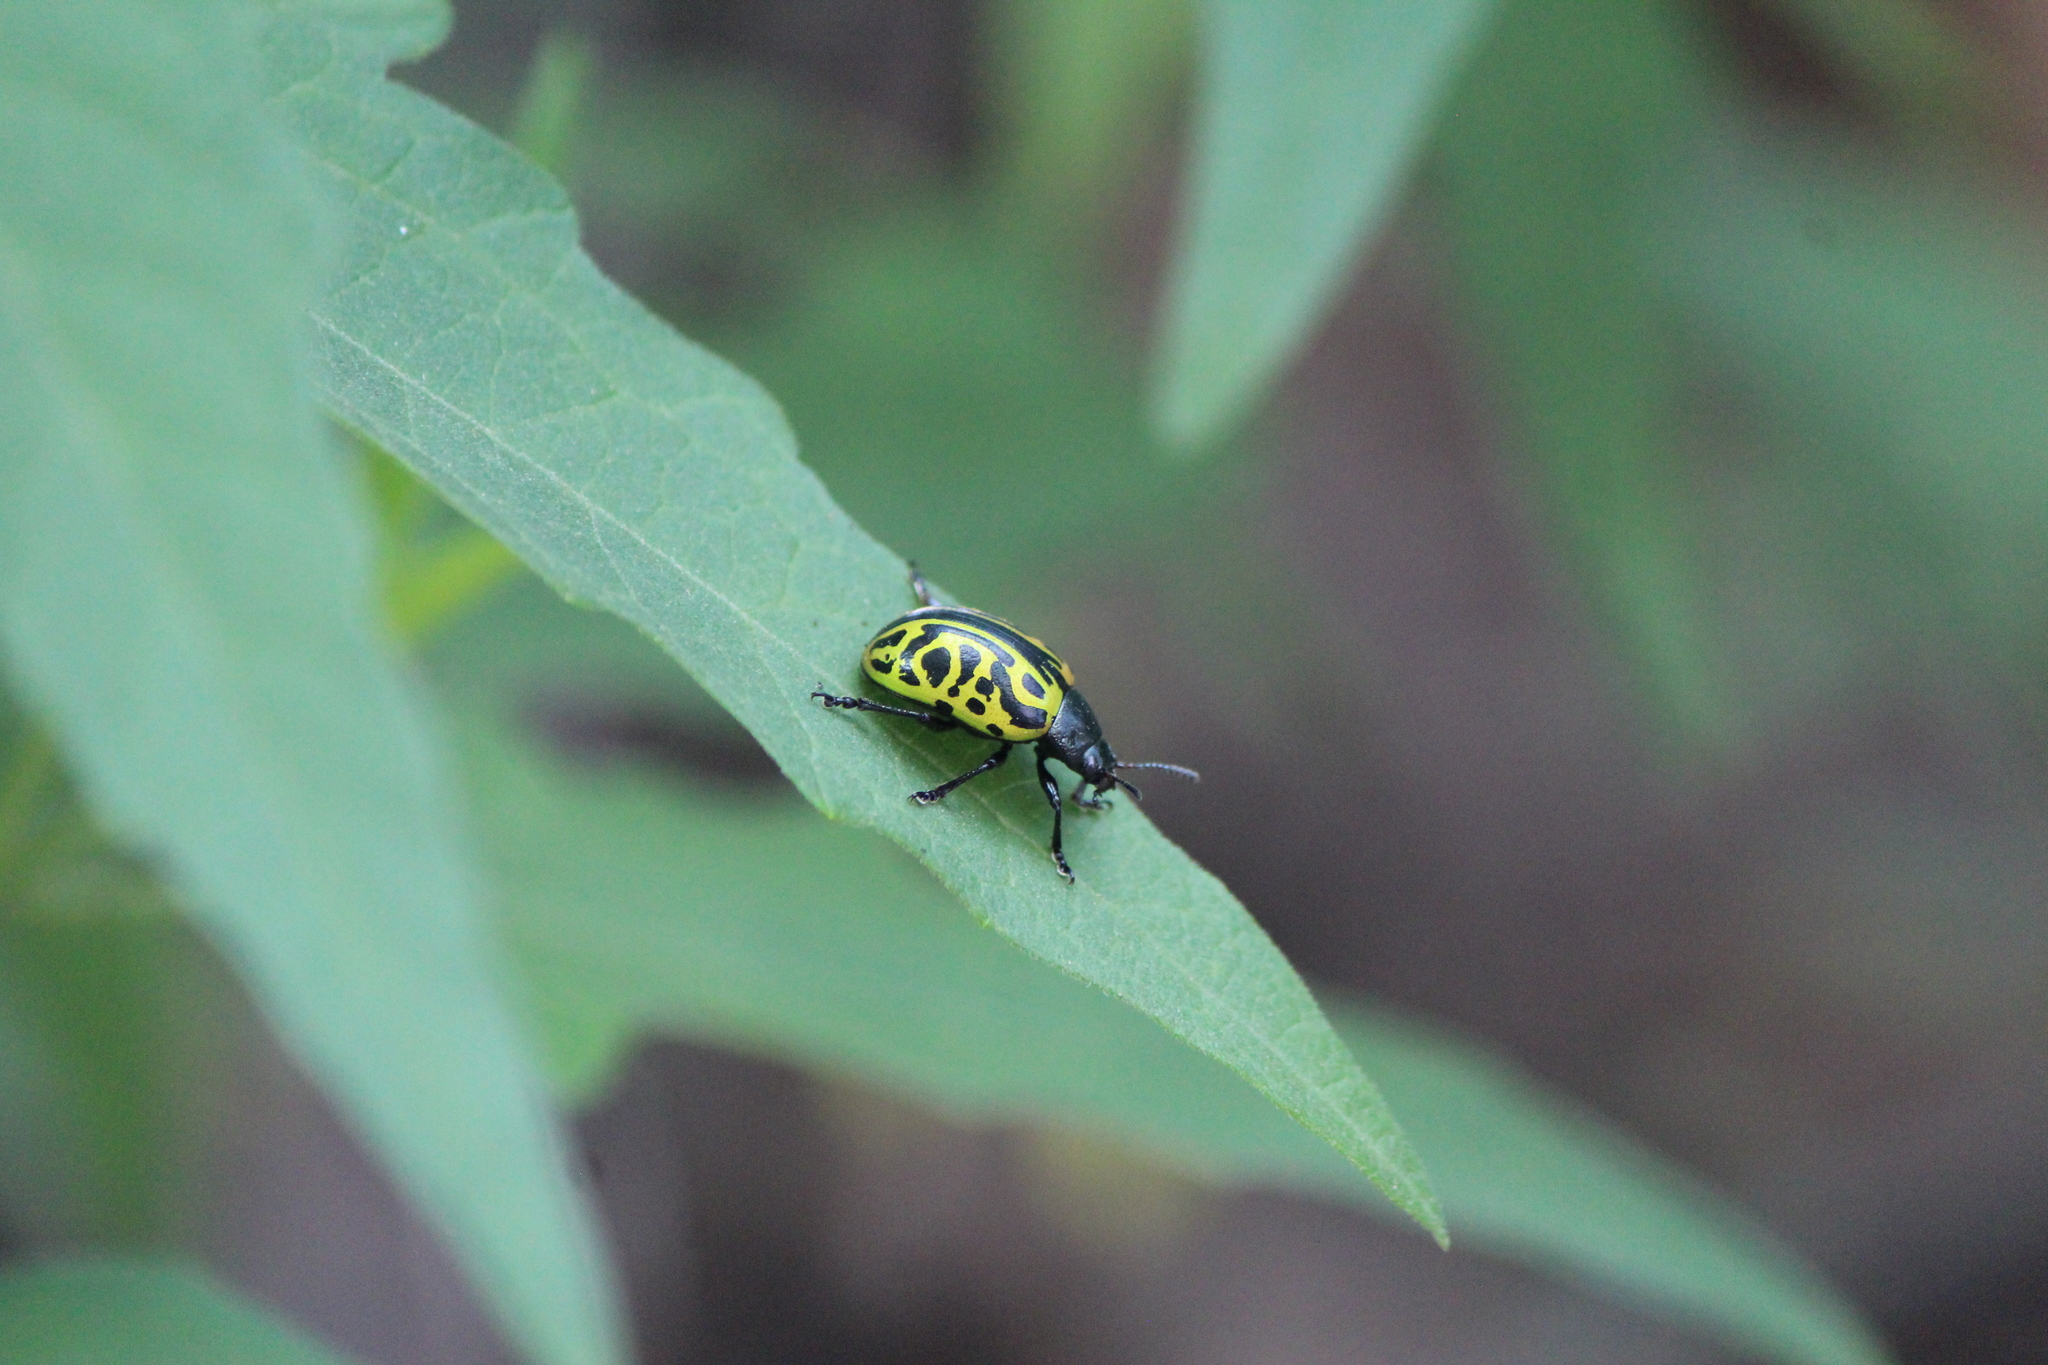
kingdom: Animalia
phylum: Arthropoda
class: Insecta
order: Coleoptera
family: Chrysomelidae
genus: Calligrapha
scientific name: Calligrapha mexicana
